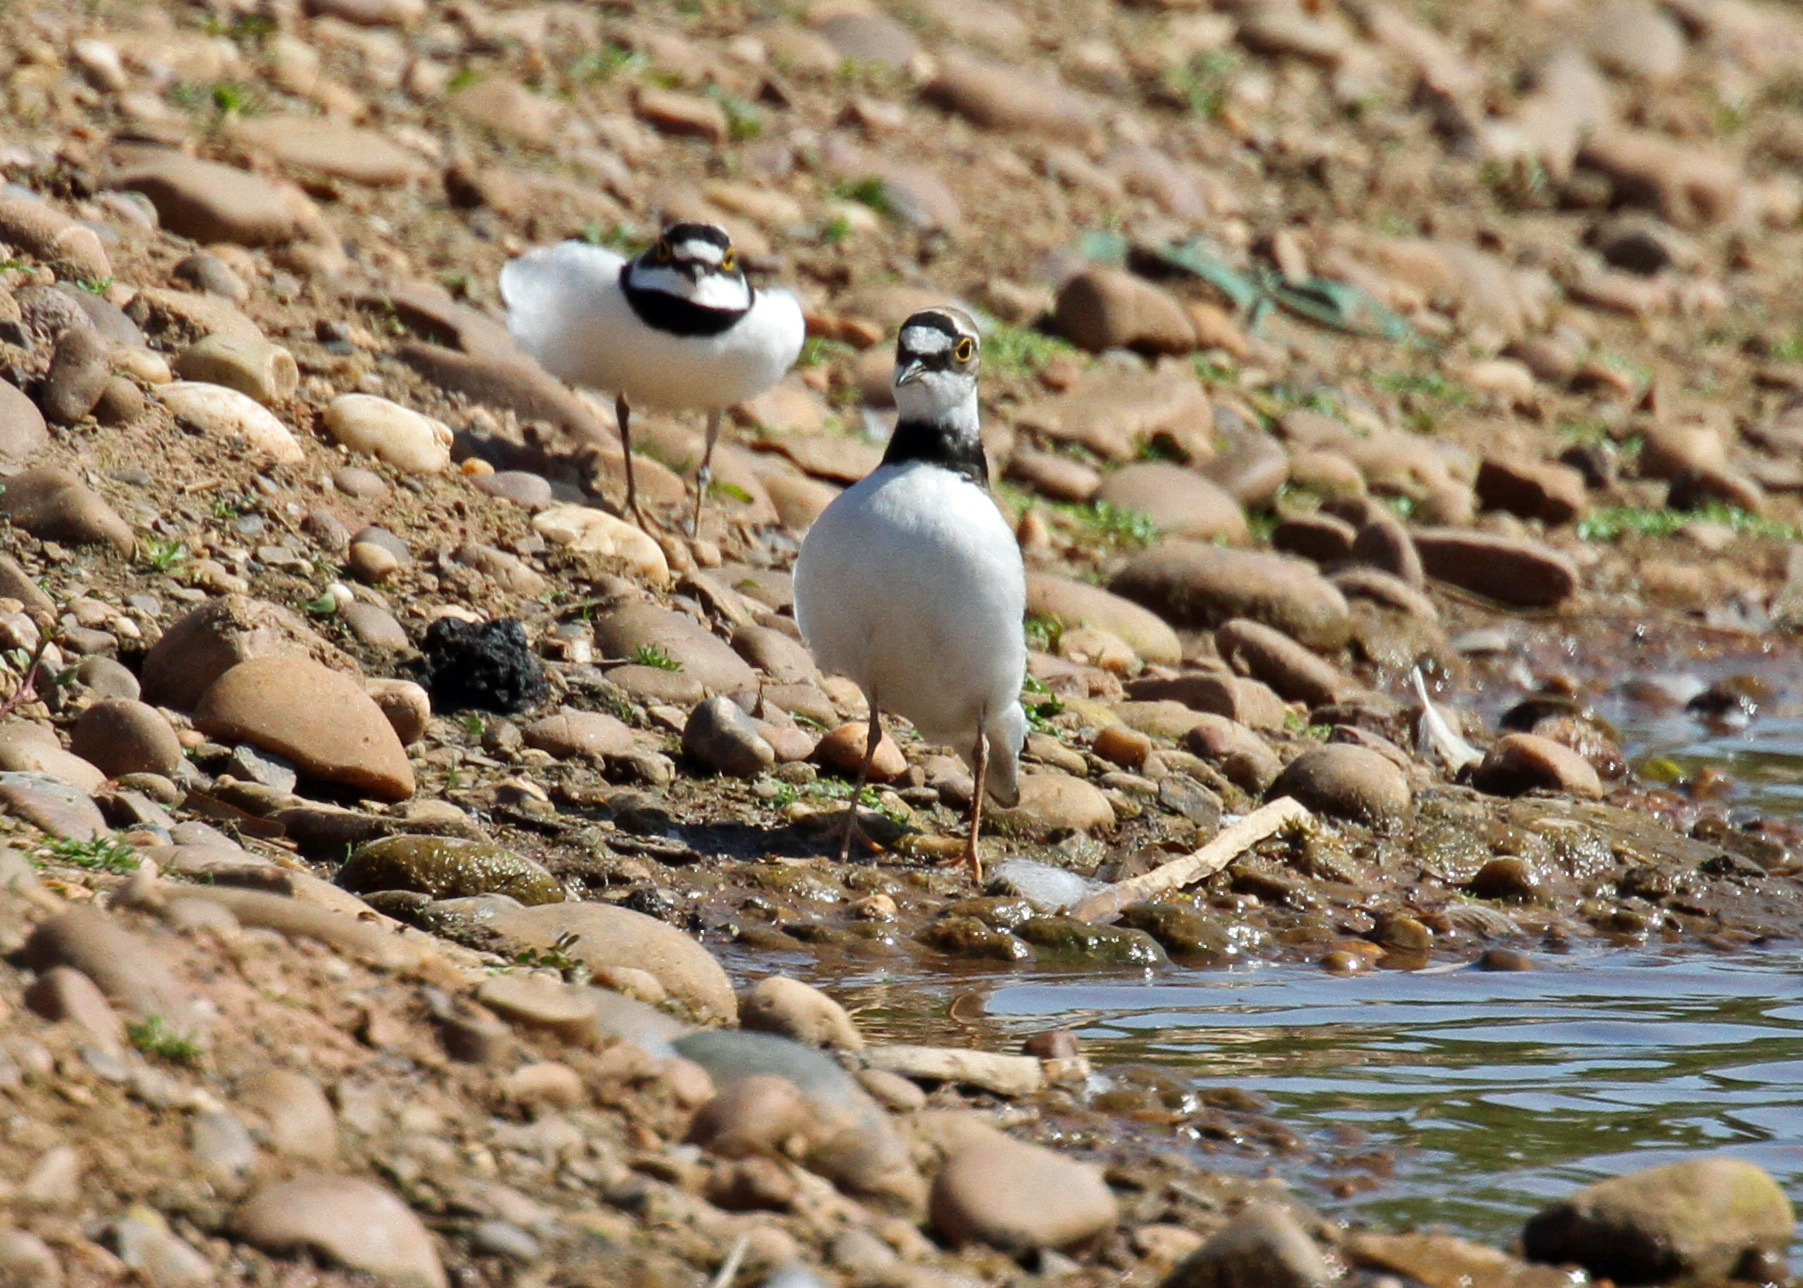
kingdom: Animalia
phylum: Chordata
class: Aves
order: Charadriiformes
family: Charadriidae
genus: Charadrius
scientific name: Charadrius dubius
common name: Little ringed plover
